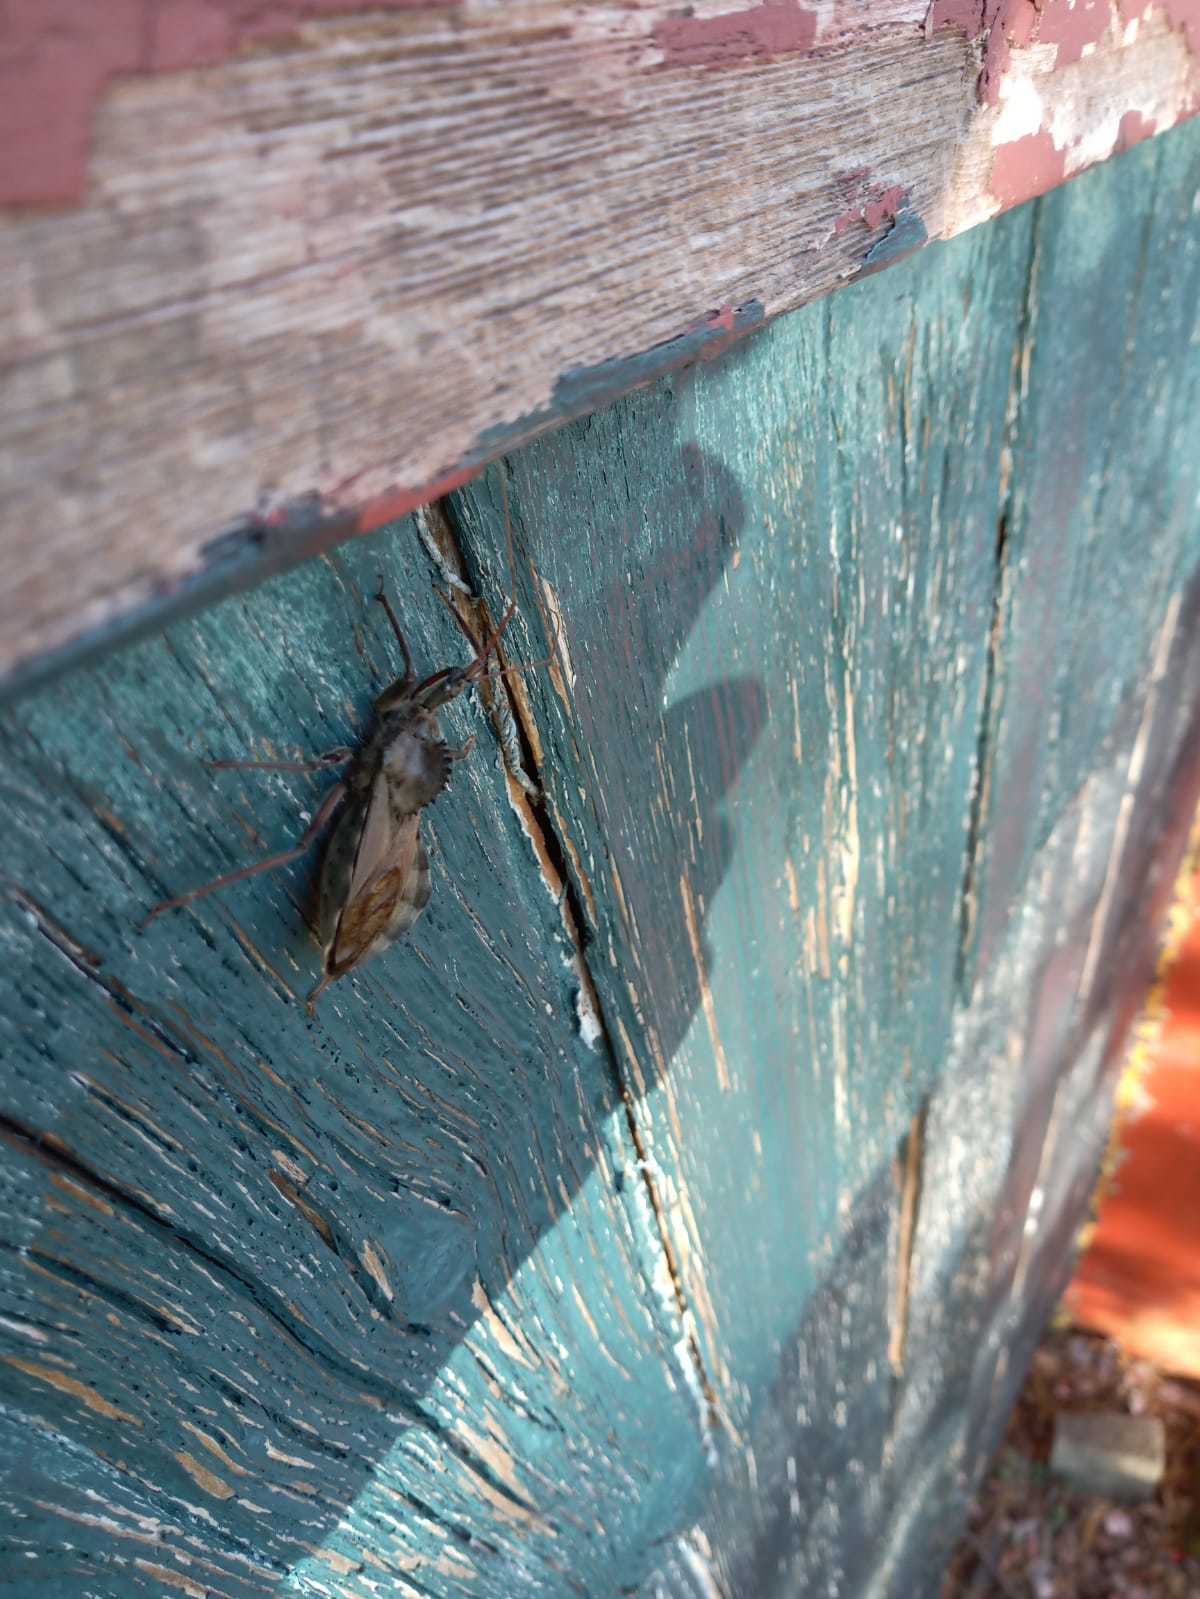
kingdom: Animalia
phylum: Arthropoda
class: Insecta
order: Hemiptera
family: Reduviidae
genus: Arilus
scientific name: Arilus cristatus
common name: North american wheel bug
